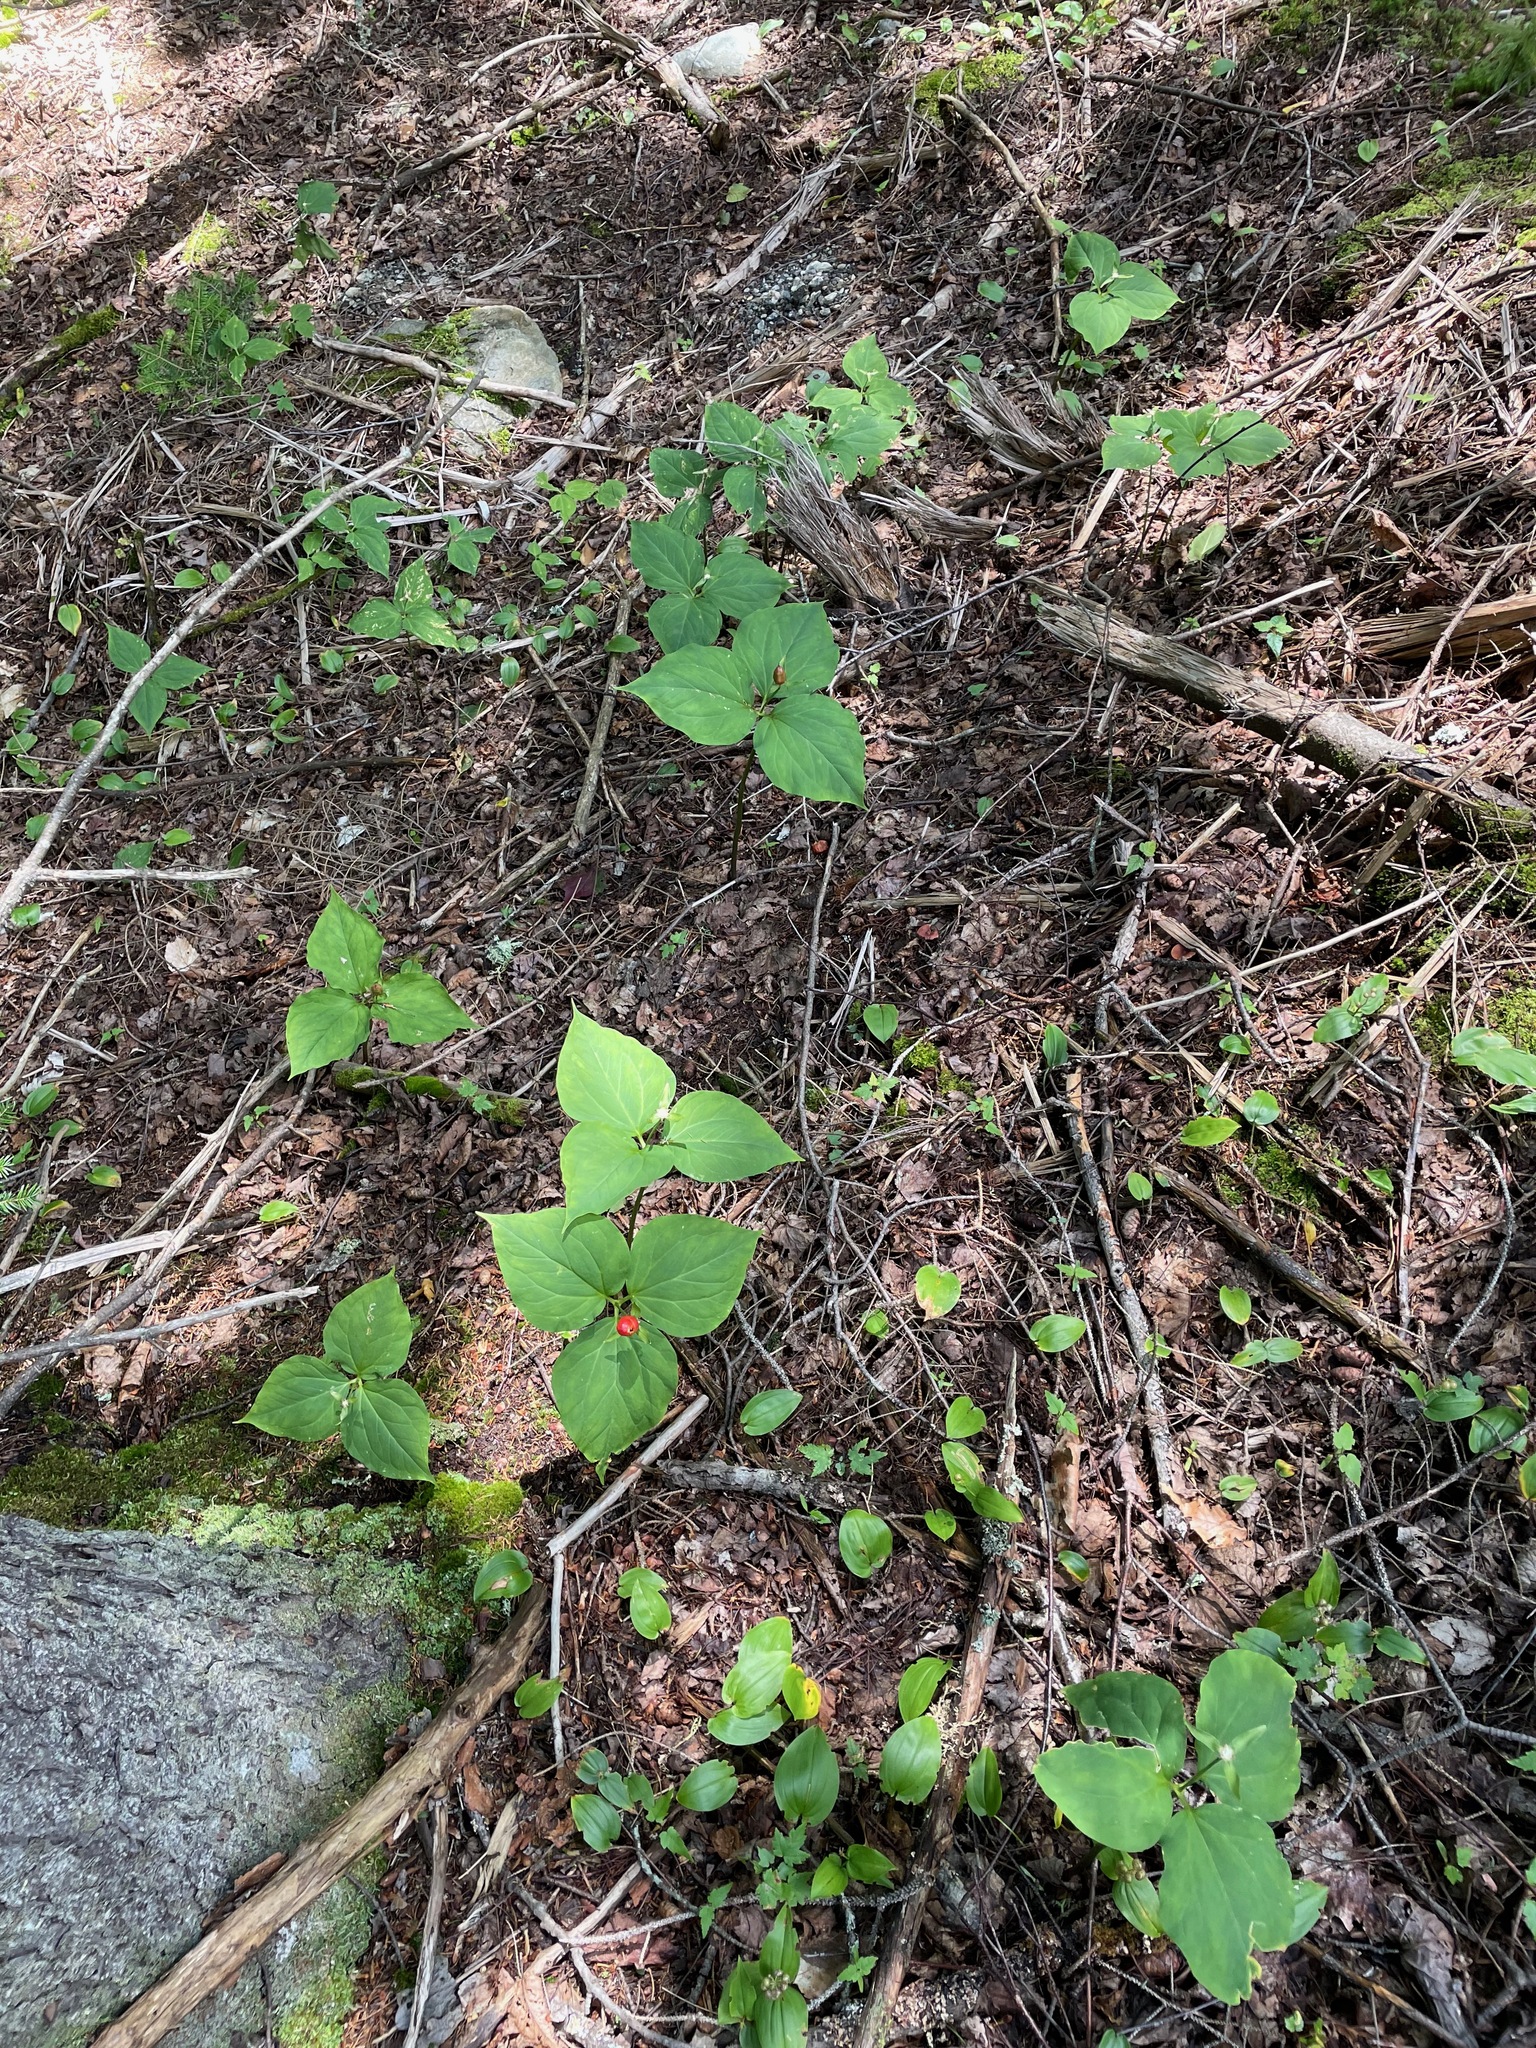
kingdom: Plantae
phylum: Tracheophyta
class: Liliopsida
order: Liliales
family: Melanthiaceae
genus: Trillium
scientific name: Trillium undulatum
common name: Paint trillium
